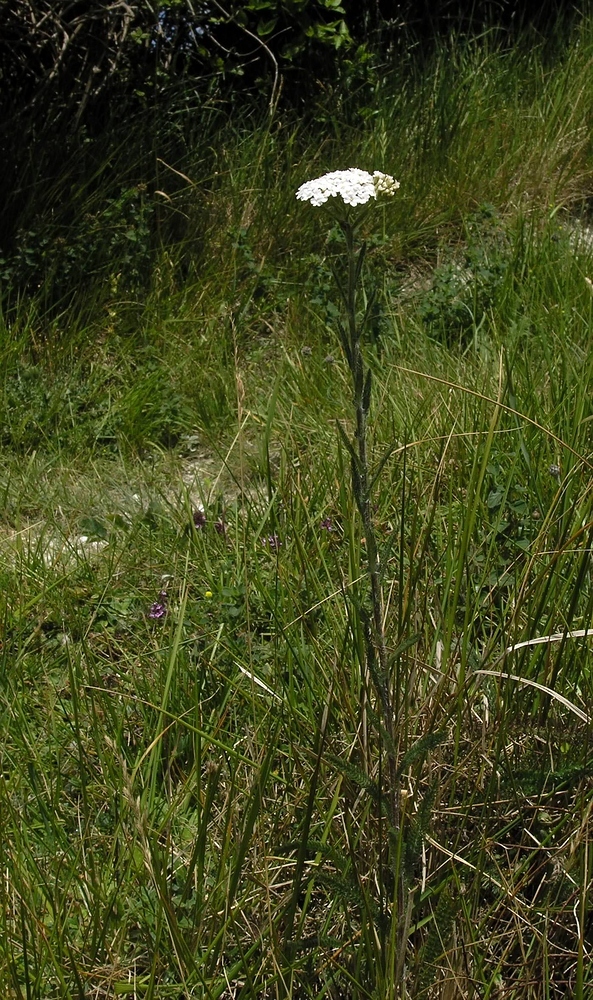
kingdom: Plantae
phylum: Tracheophyta
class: Magnoliopsida
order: Asterales
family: Asteraceae
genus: Achillea
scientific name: Achillea millefolium
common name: Yarrow
